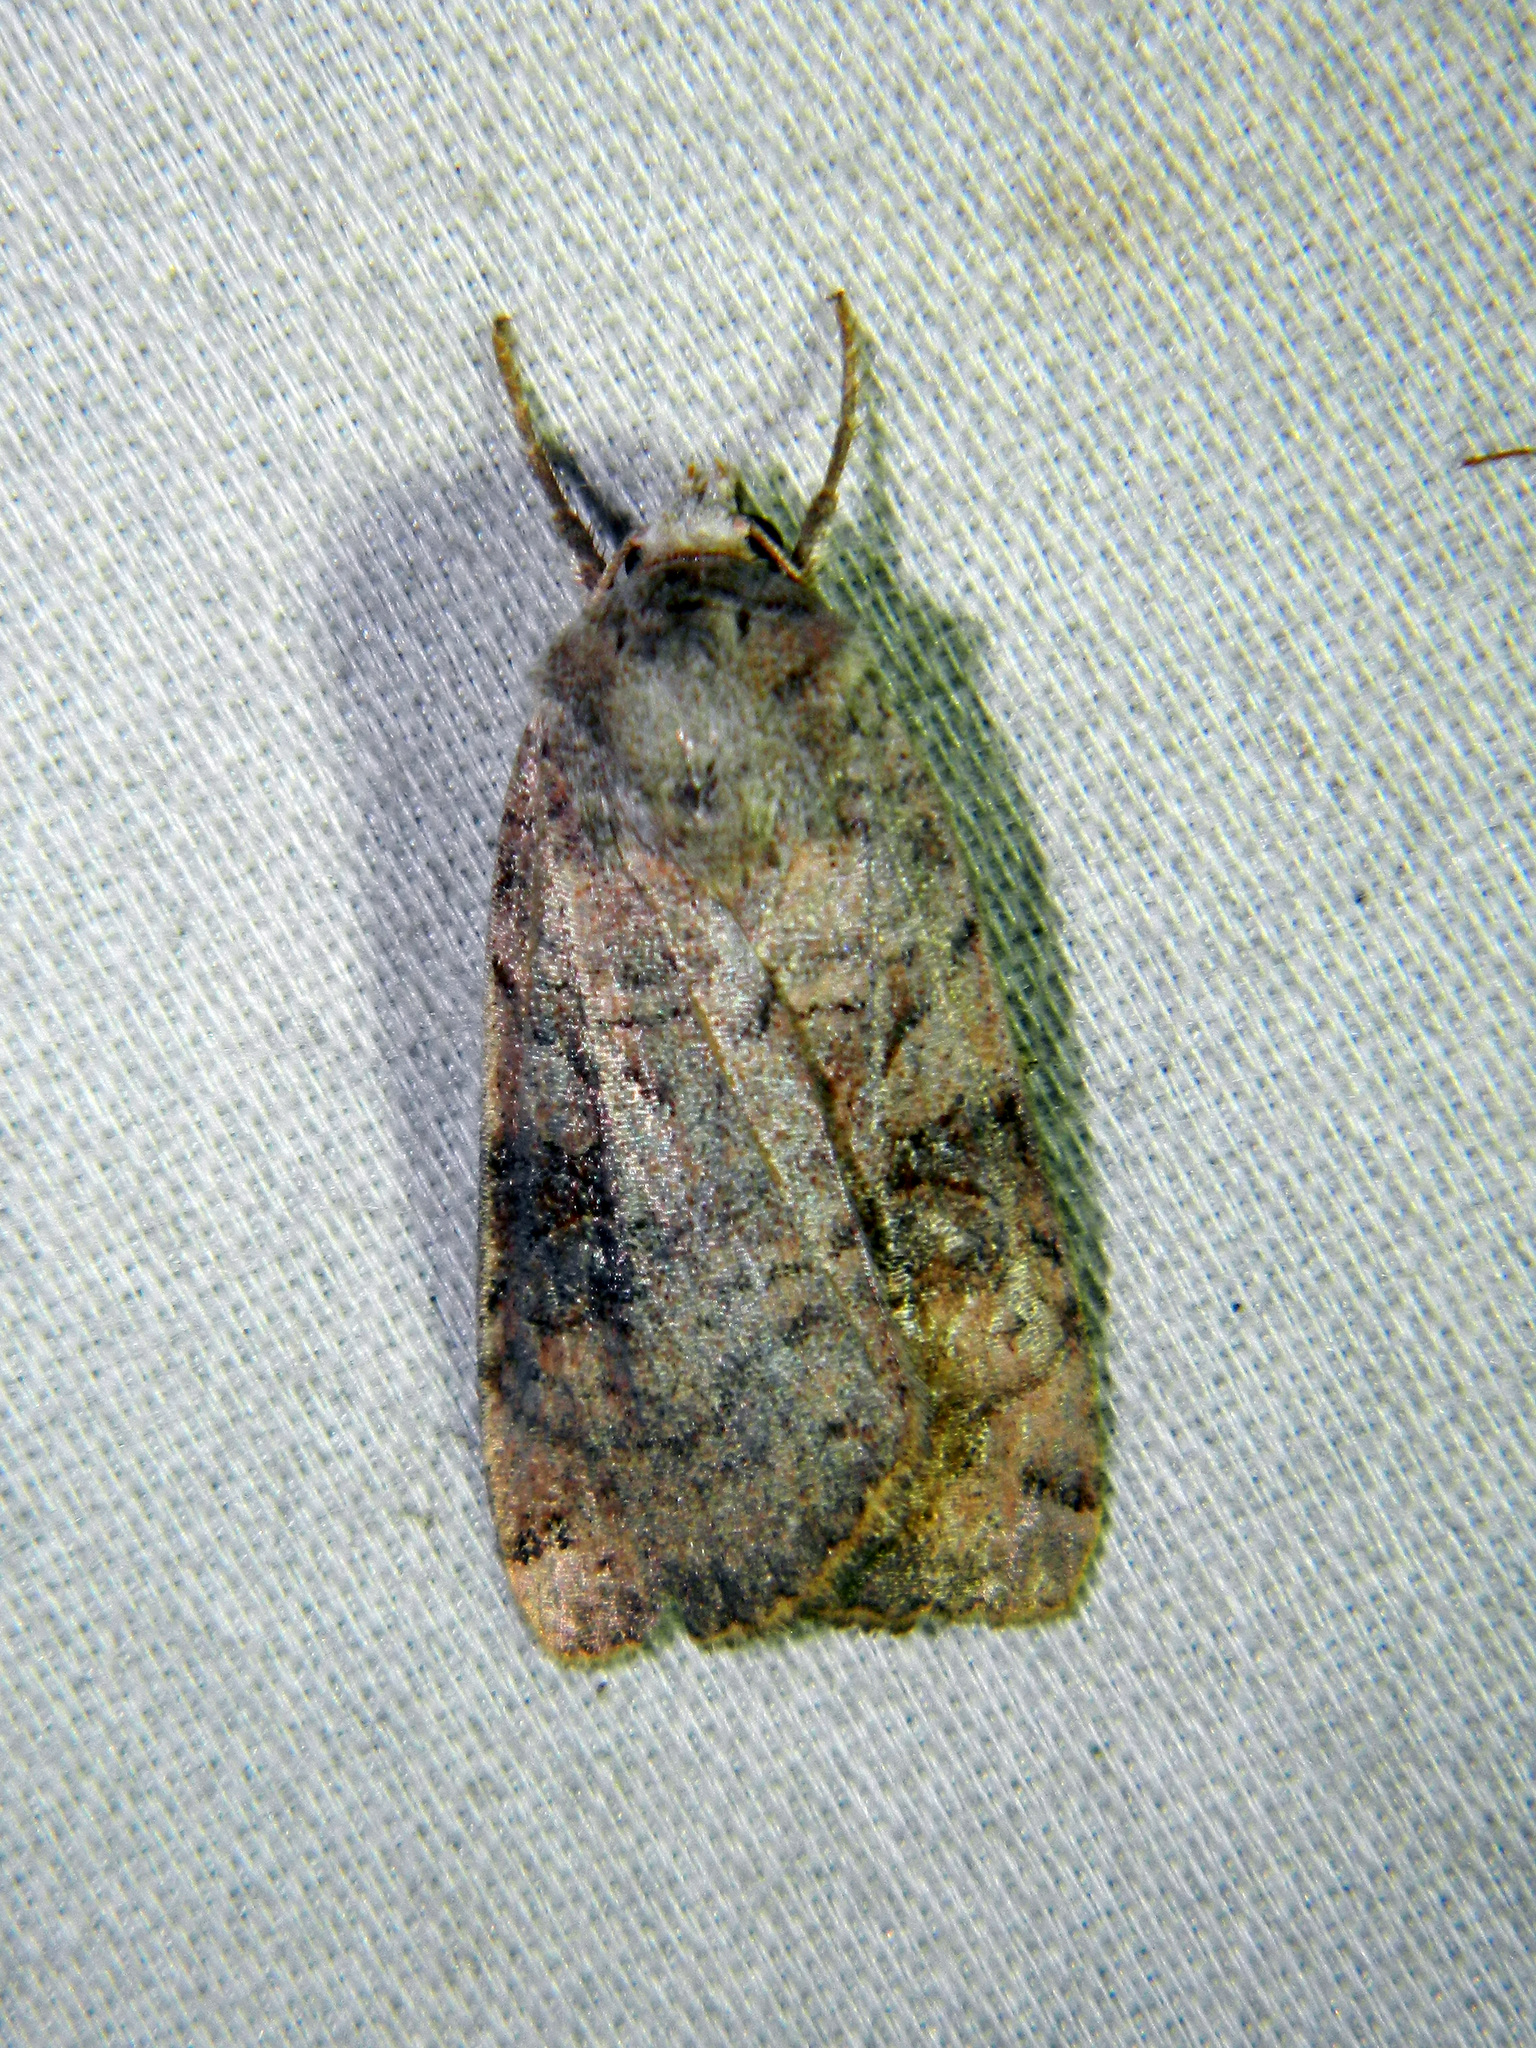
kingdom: Animalia
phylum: Arthropoda
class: Insecta
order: Lepidoptera
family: Noctuidae
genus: Xestia
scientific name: Xestia smithii
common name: Smith's dart
